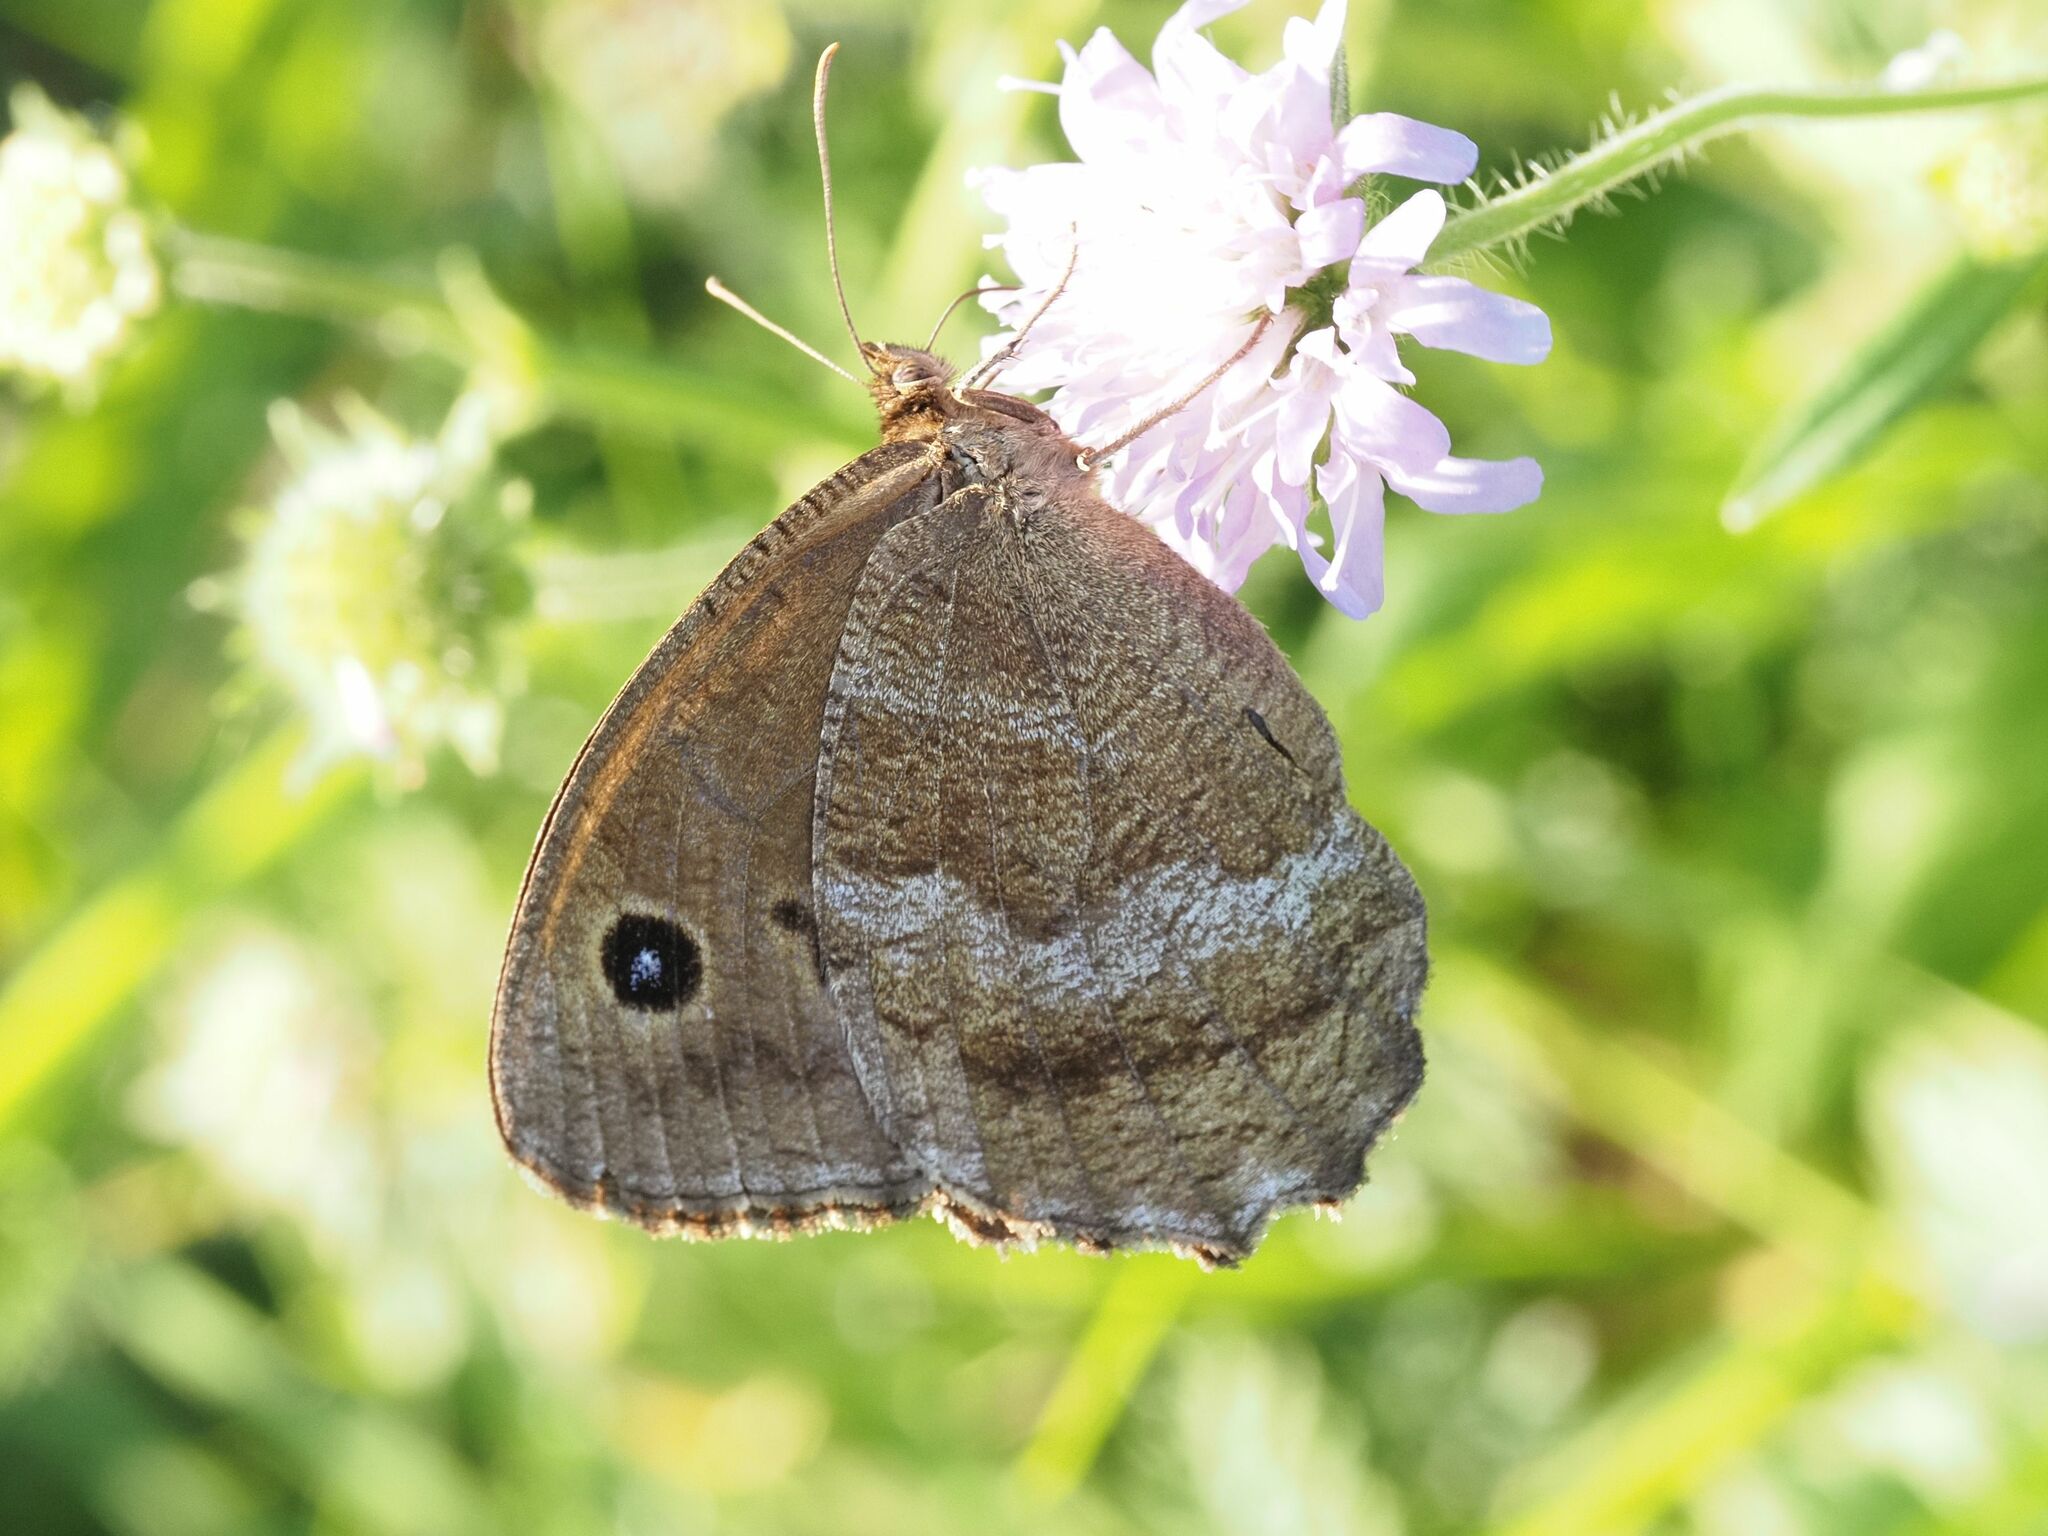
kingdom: Animalia
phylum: Arthropoda
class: Insecta
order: Lepidoptera
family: Nymphalidae
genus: Minois
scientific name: Minois dryas
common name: Dryad
